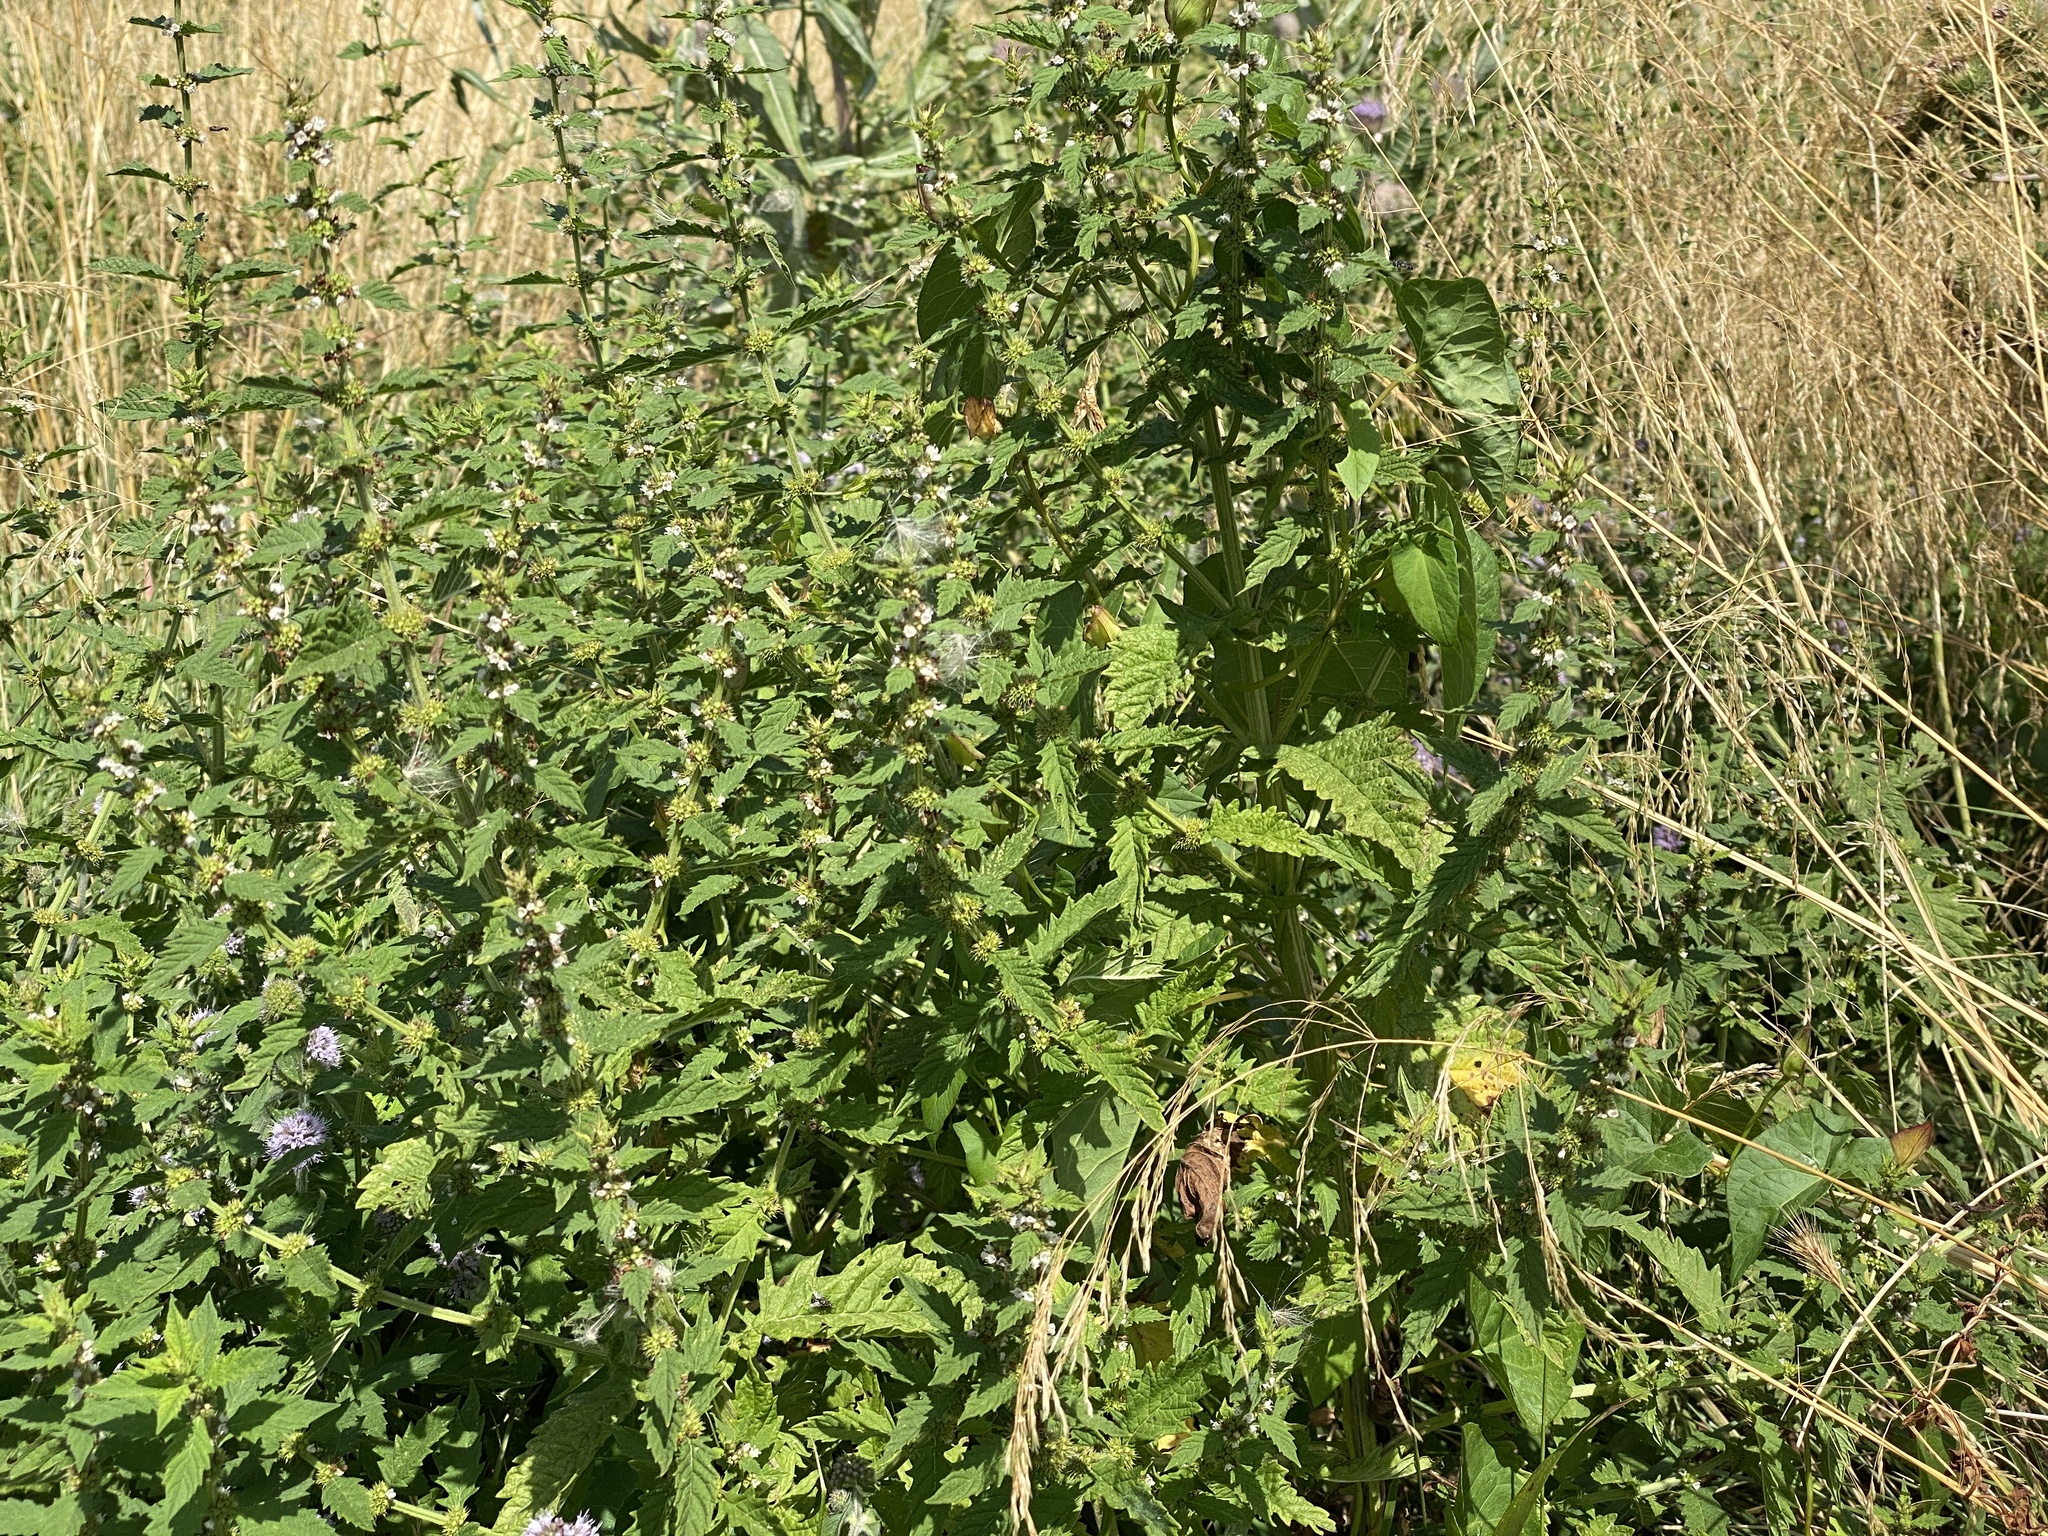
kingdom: Plantae
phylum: Tracheophyta
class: Magnoliopsida
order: Lamiales
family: Lamiaceae
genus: Lycopus
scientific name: Lycopus europaeus
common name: European bugleweed
